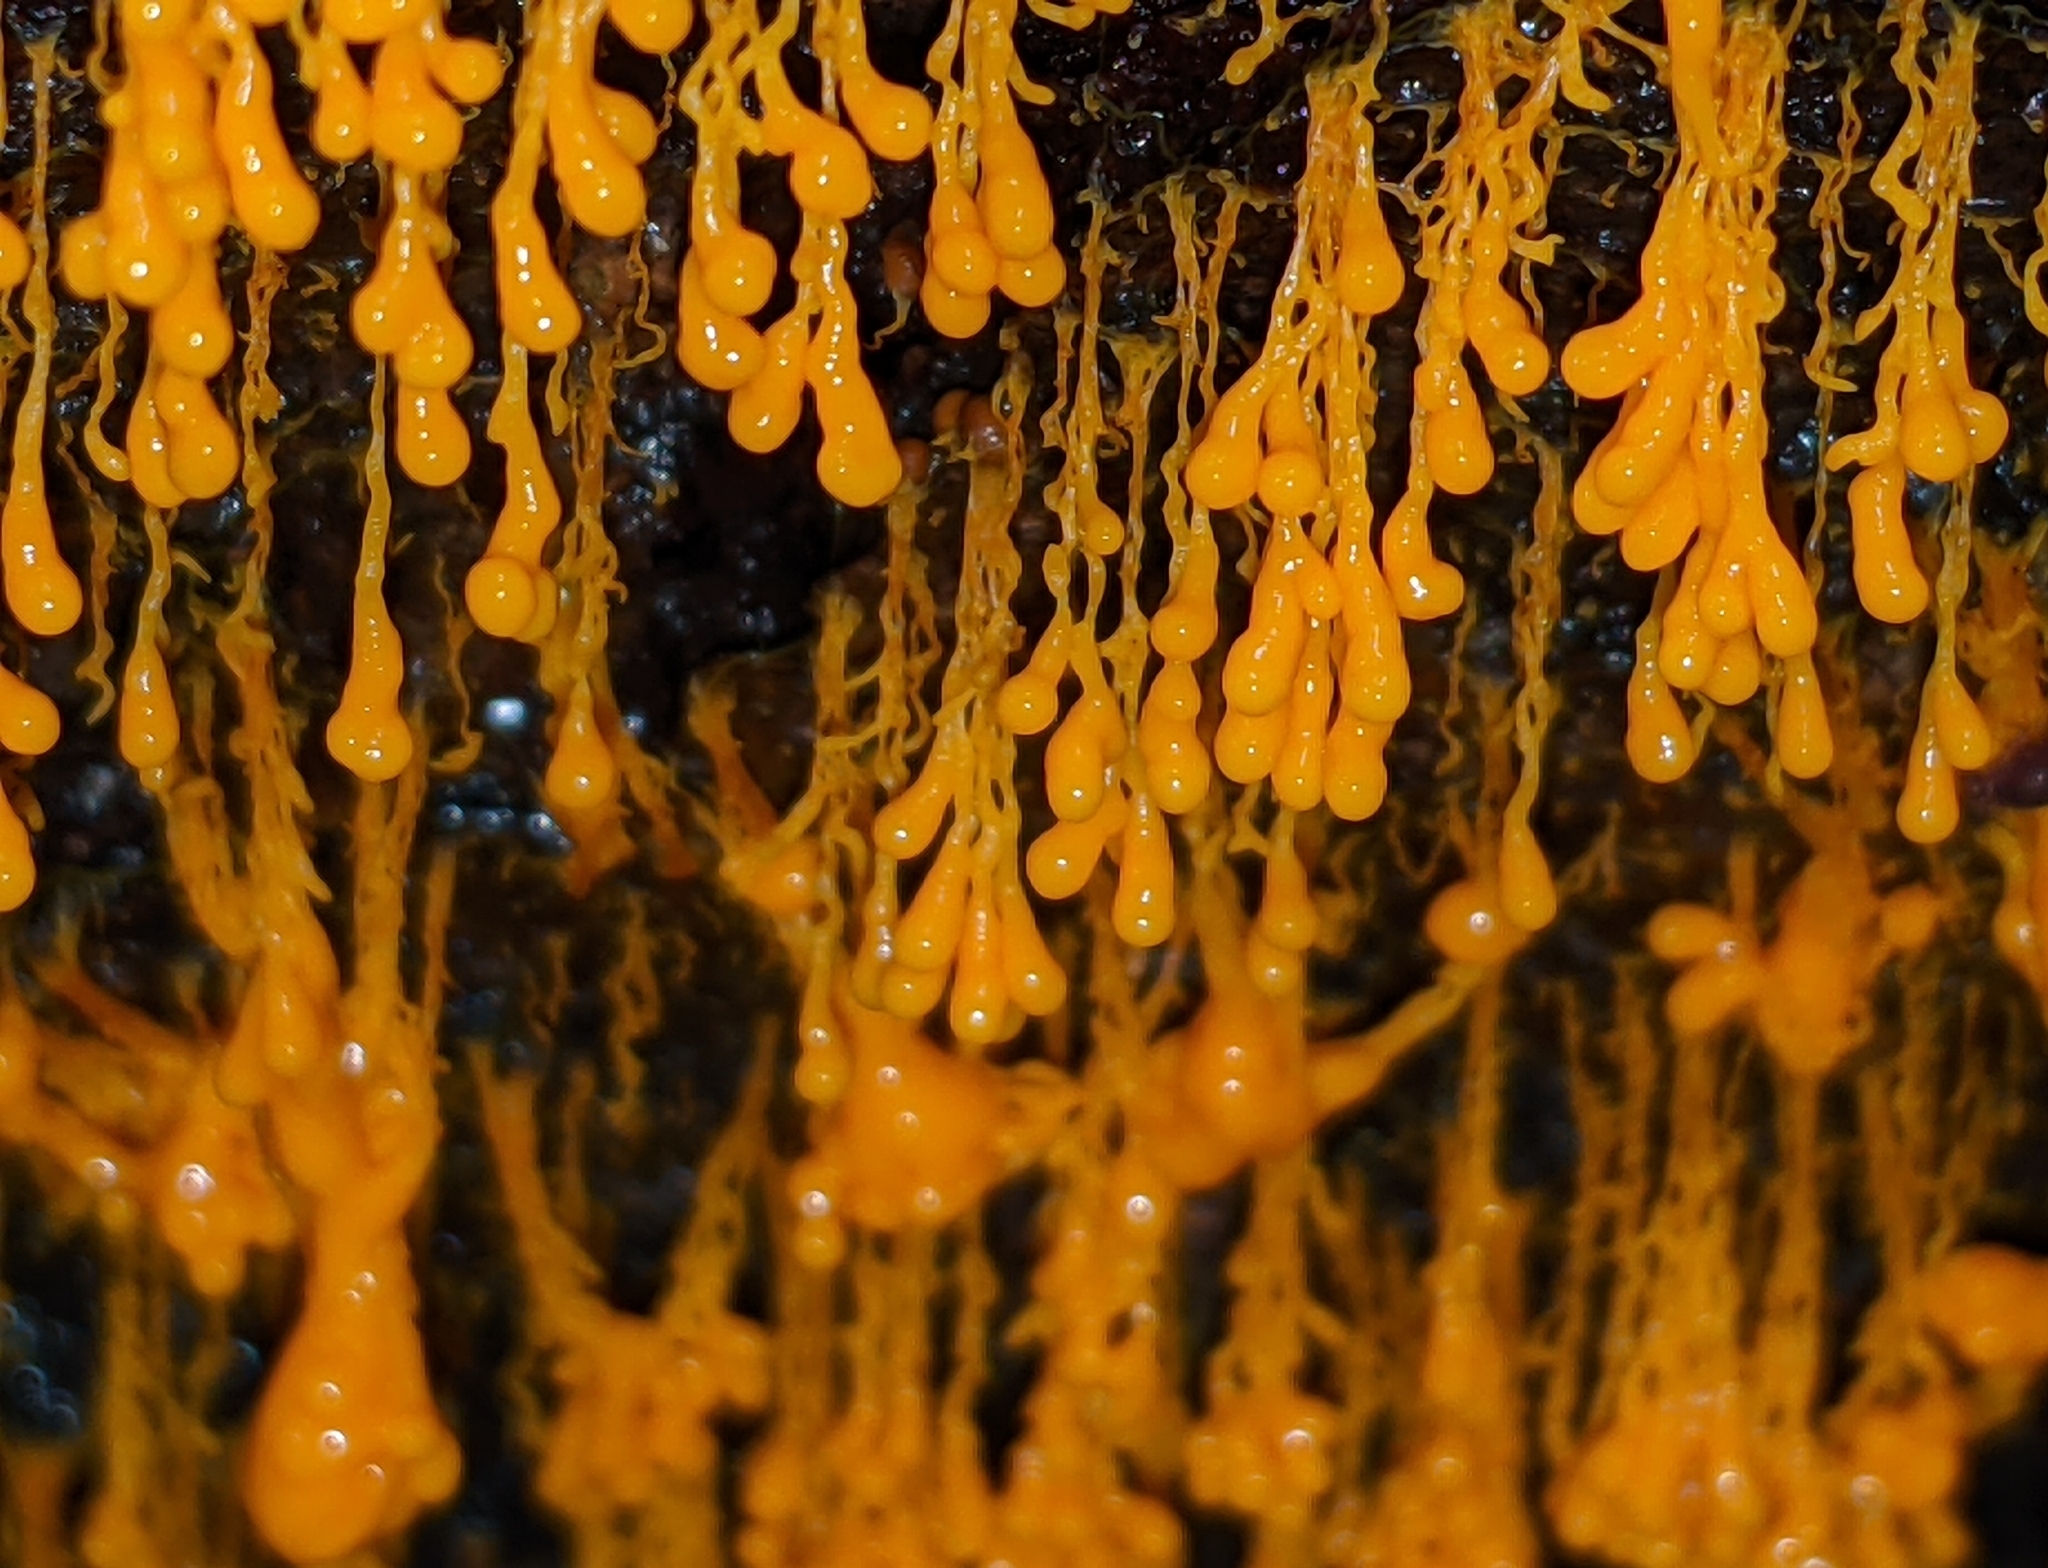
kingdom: Protozoa
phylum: Mycetozoa
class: Myxomycetes
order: Physarales
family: Physaraceae
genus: Badhamia
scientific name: Badhamia utricularis
